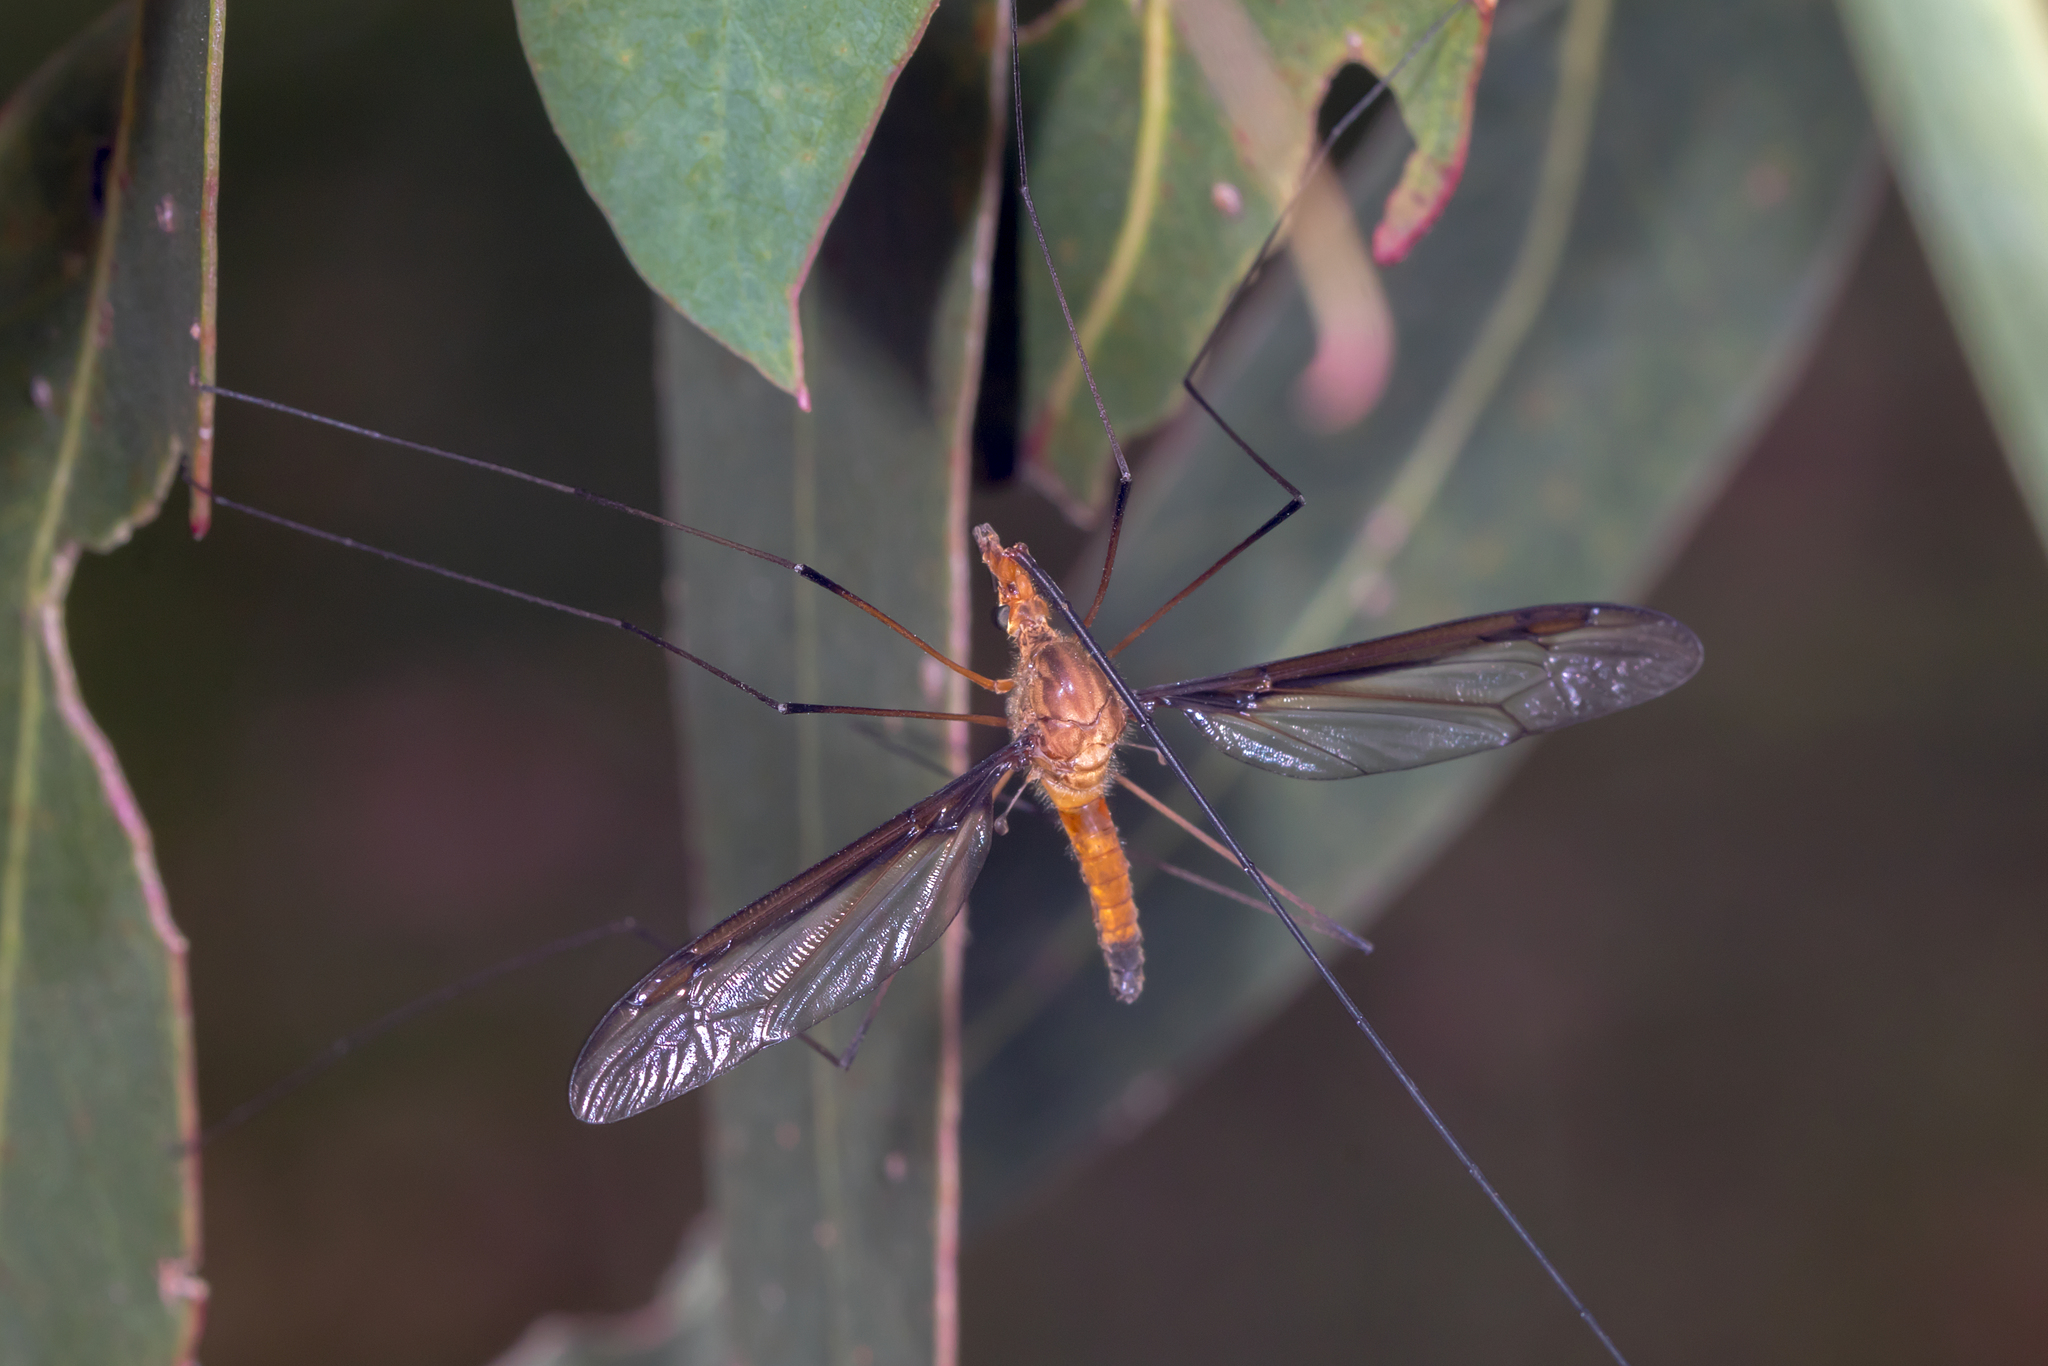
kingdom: Animalia
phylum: Arthropoda
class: Insecta
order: Diptera
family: Tipulidae
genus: Leptotarsus
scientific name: Leptotarsus costalis
